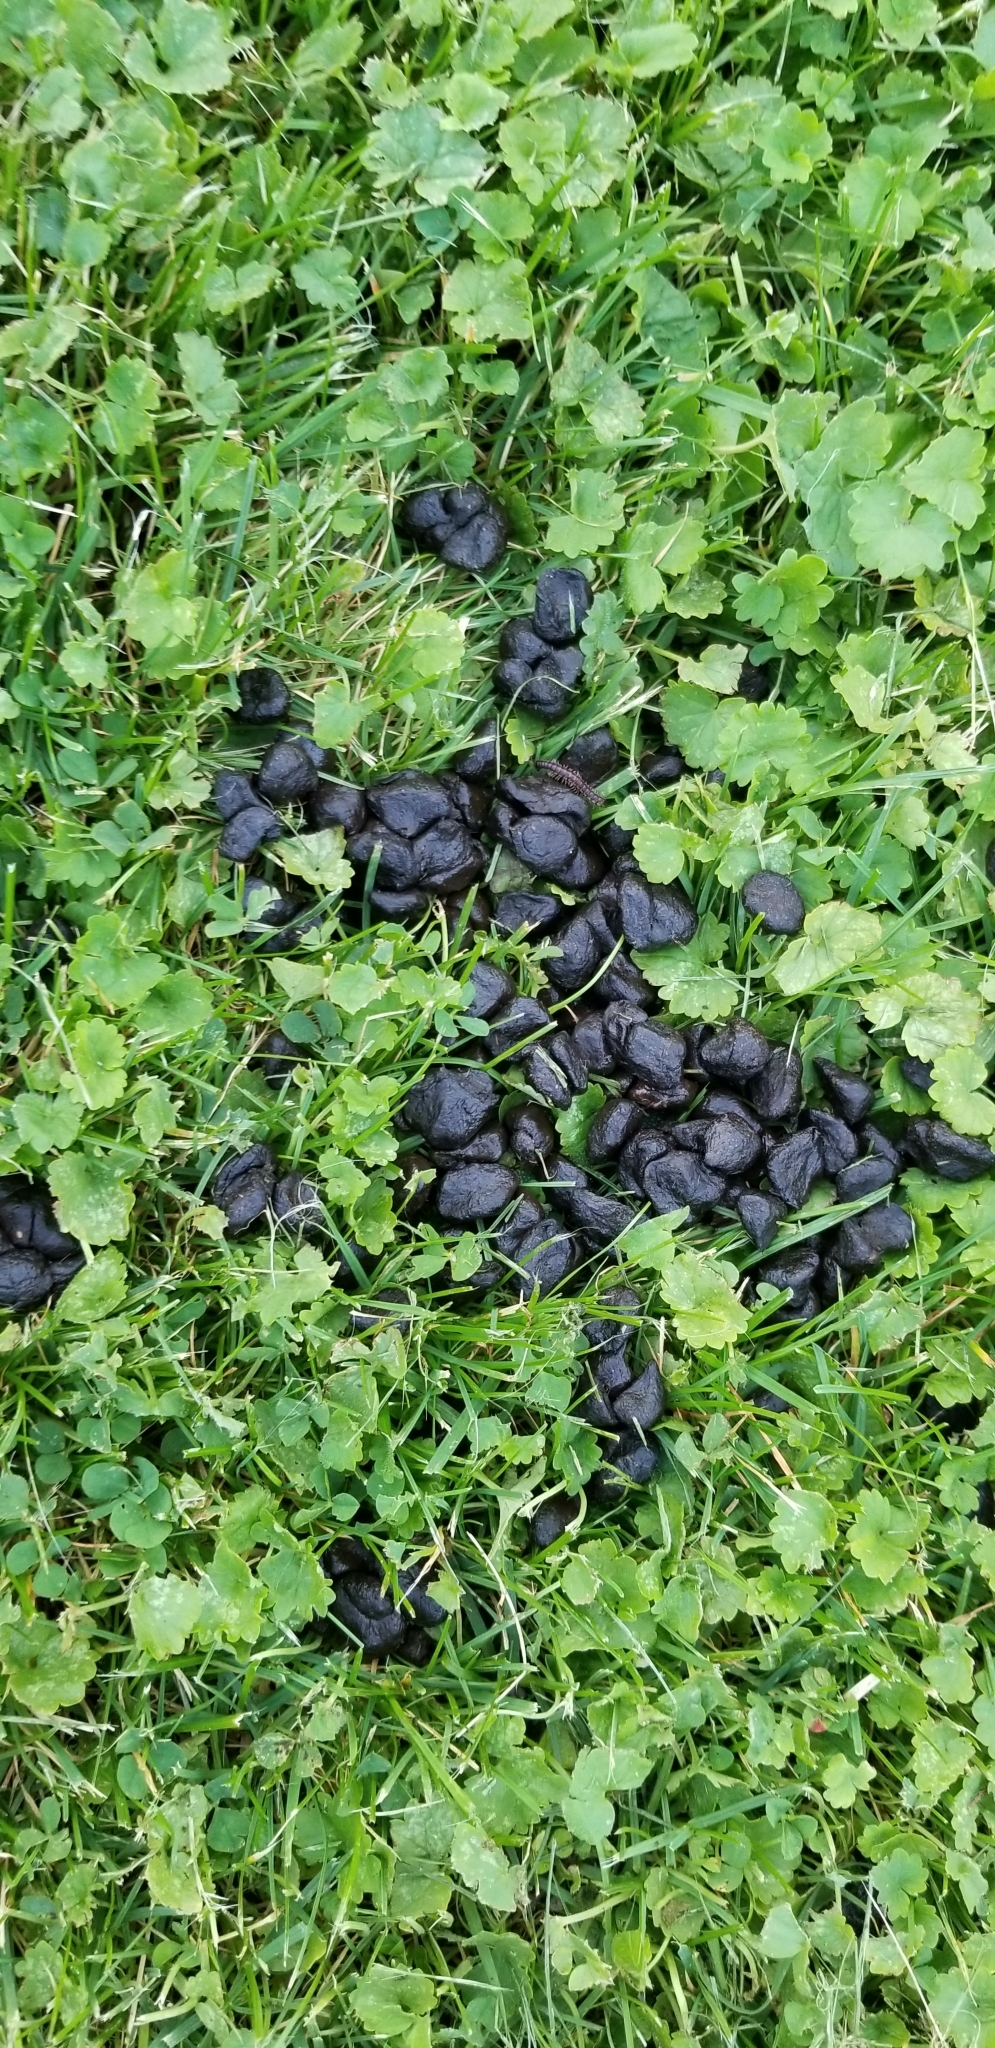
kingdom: Animalia
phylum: Chordata
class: Mammalia
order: Artiodactyla
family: Cervidae
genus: Odocoileus
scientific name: Odocoileus virginianus
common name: White-tailed deer
